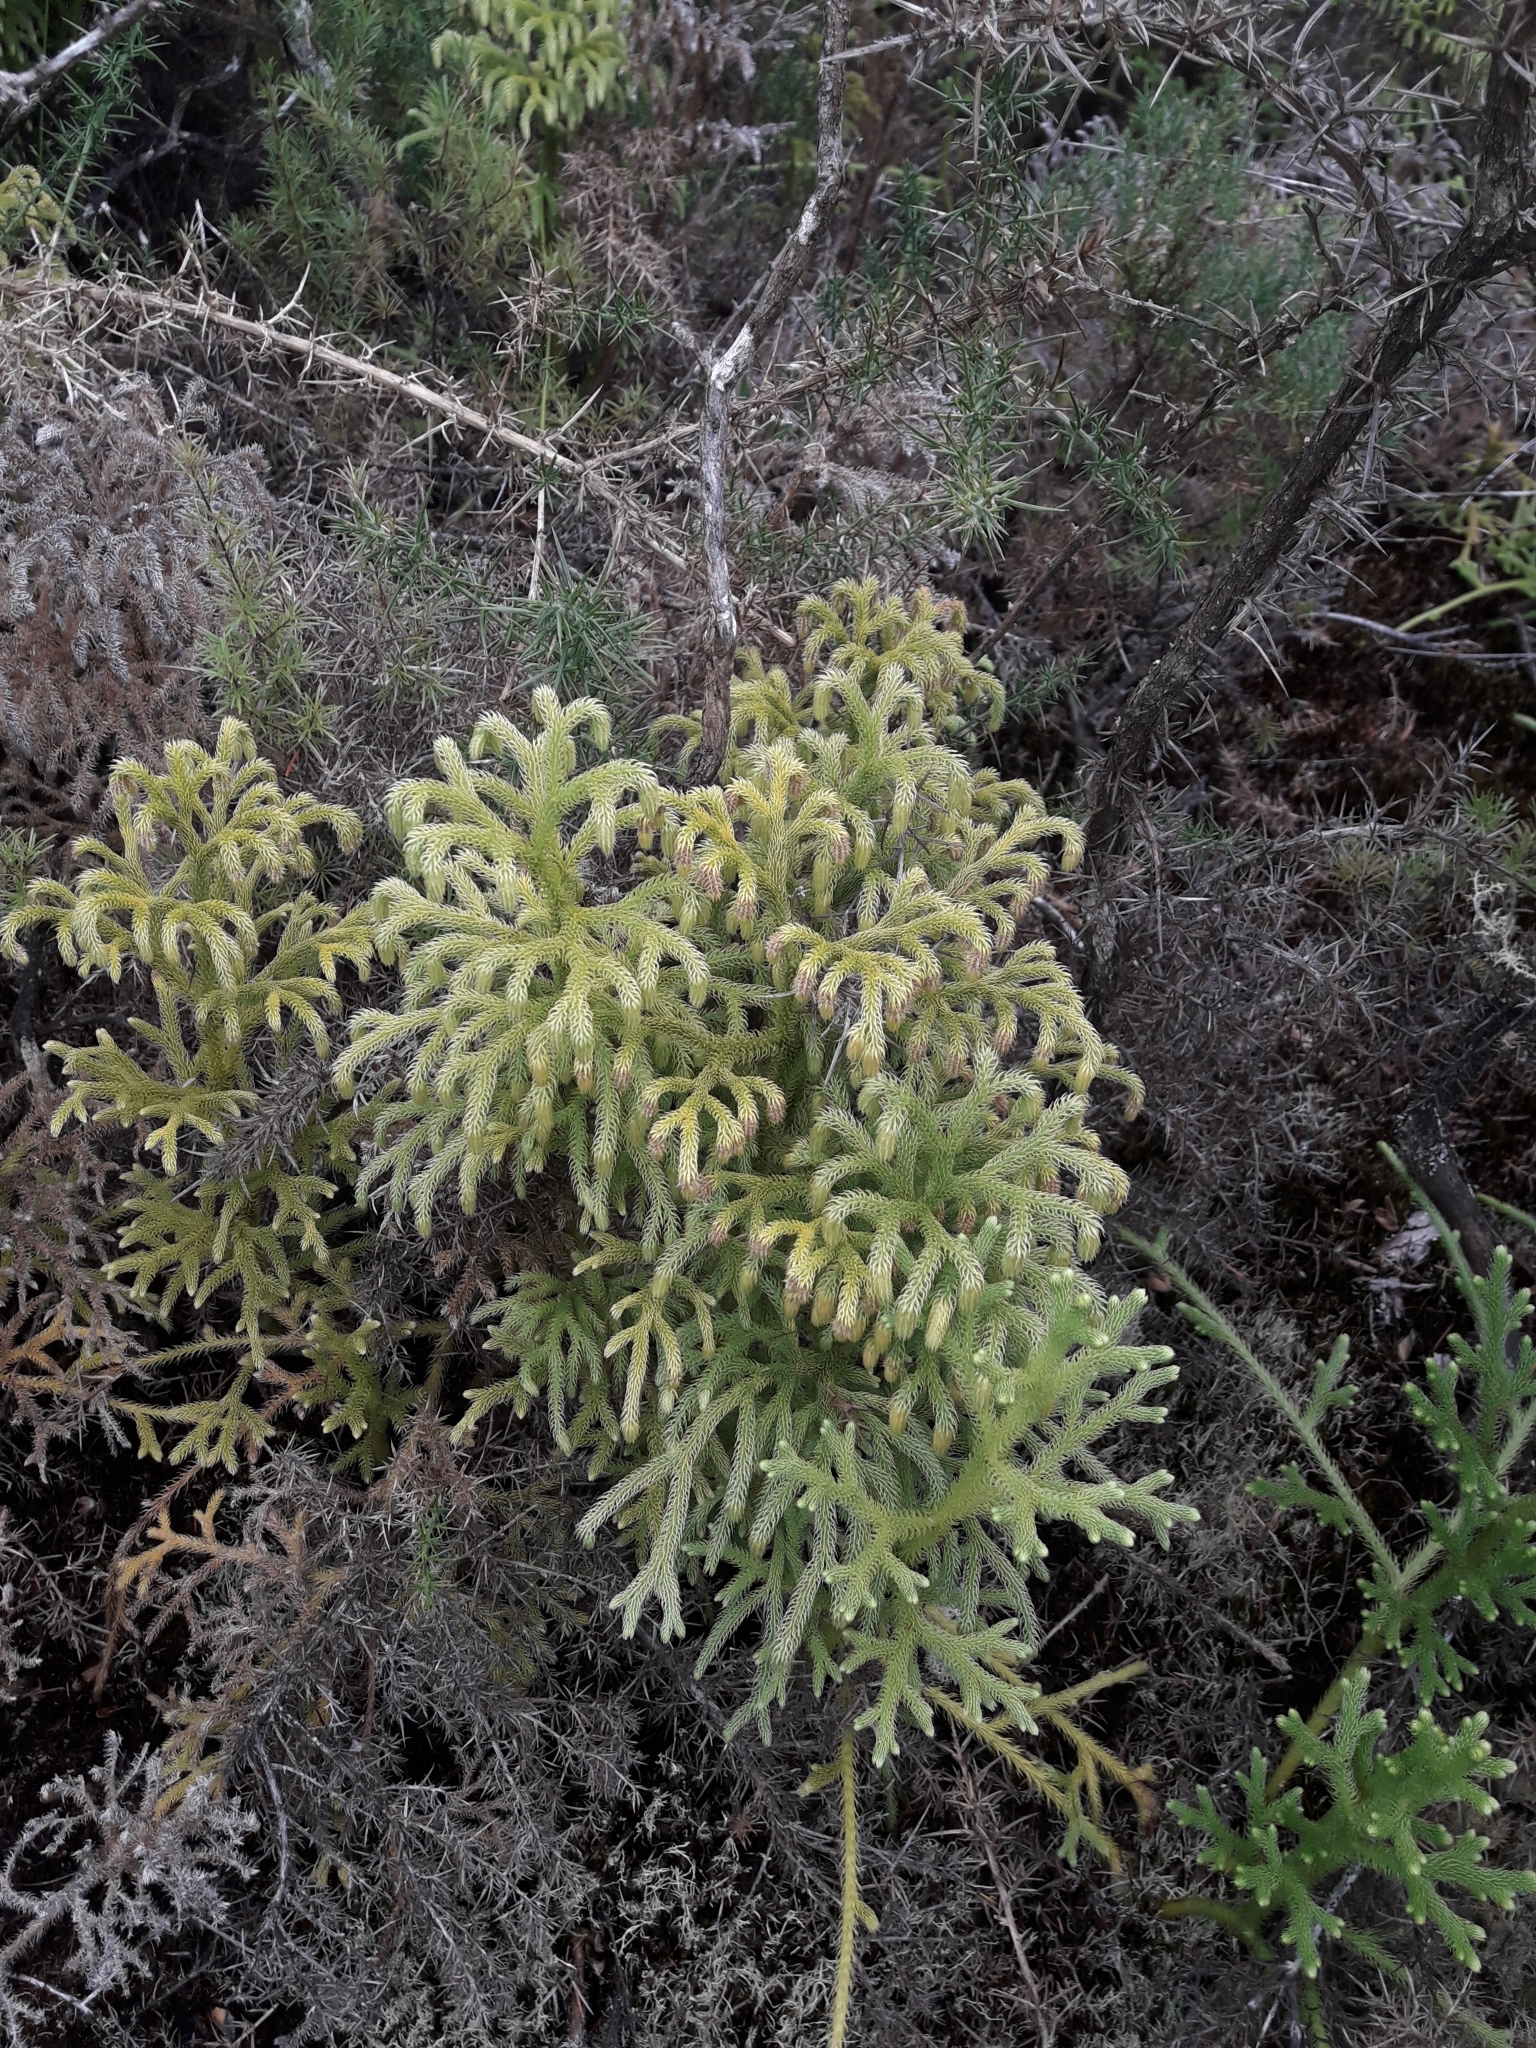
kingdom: Plantae
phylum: Tracheophyta
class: Lycopodiopsida
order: Lycopodiales
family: Lycopodiaceae
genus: Palhinhaea
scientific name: Palhinhaea cernua
